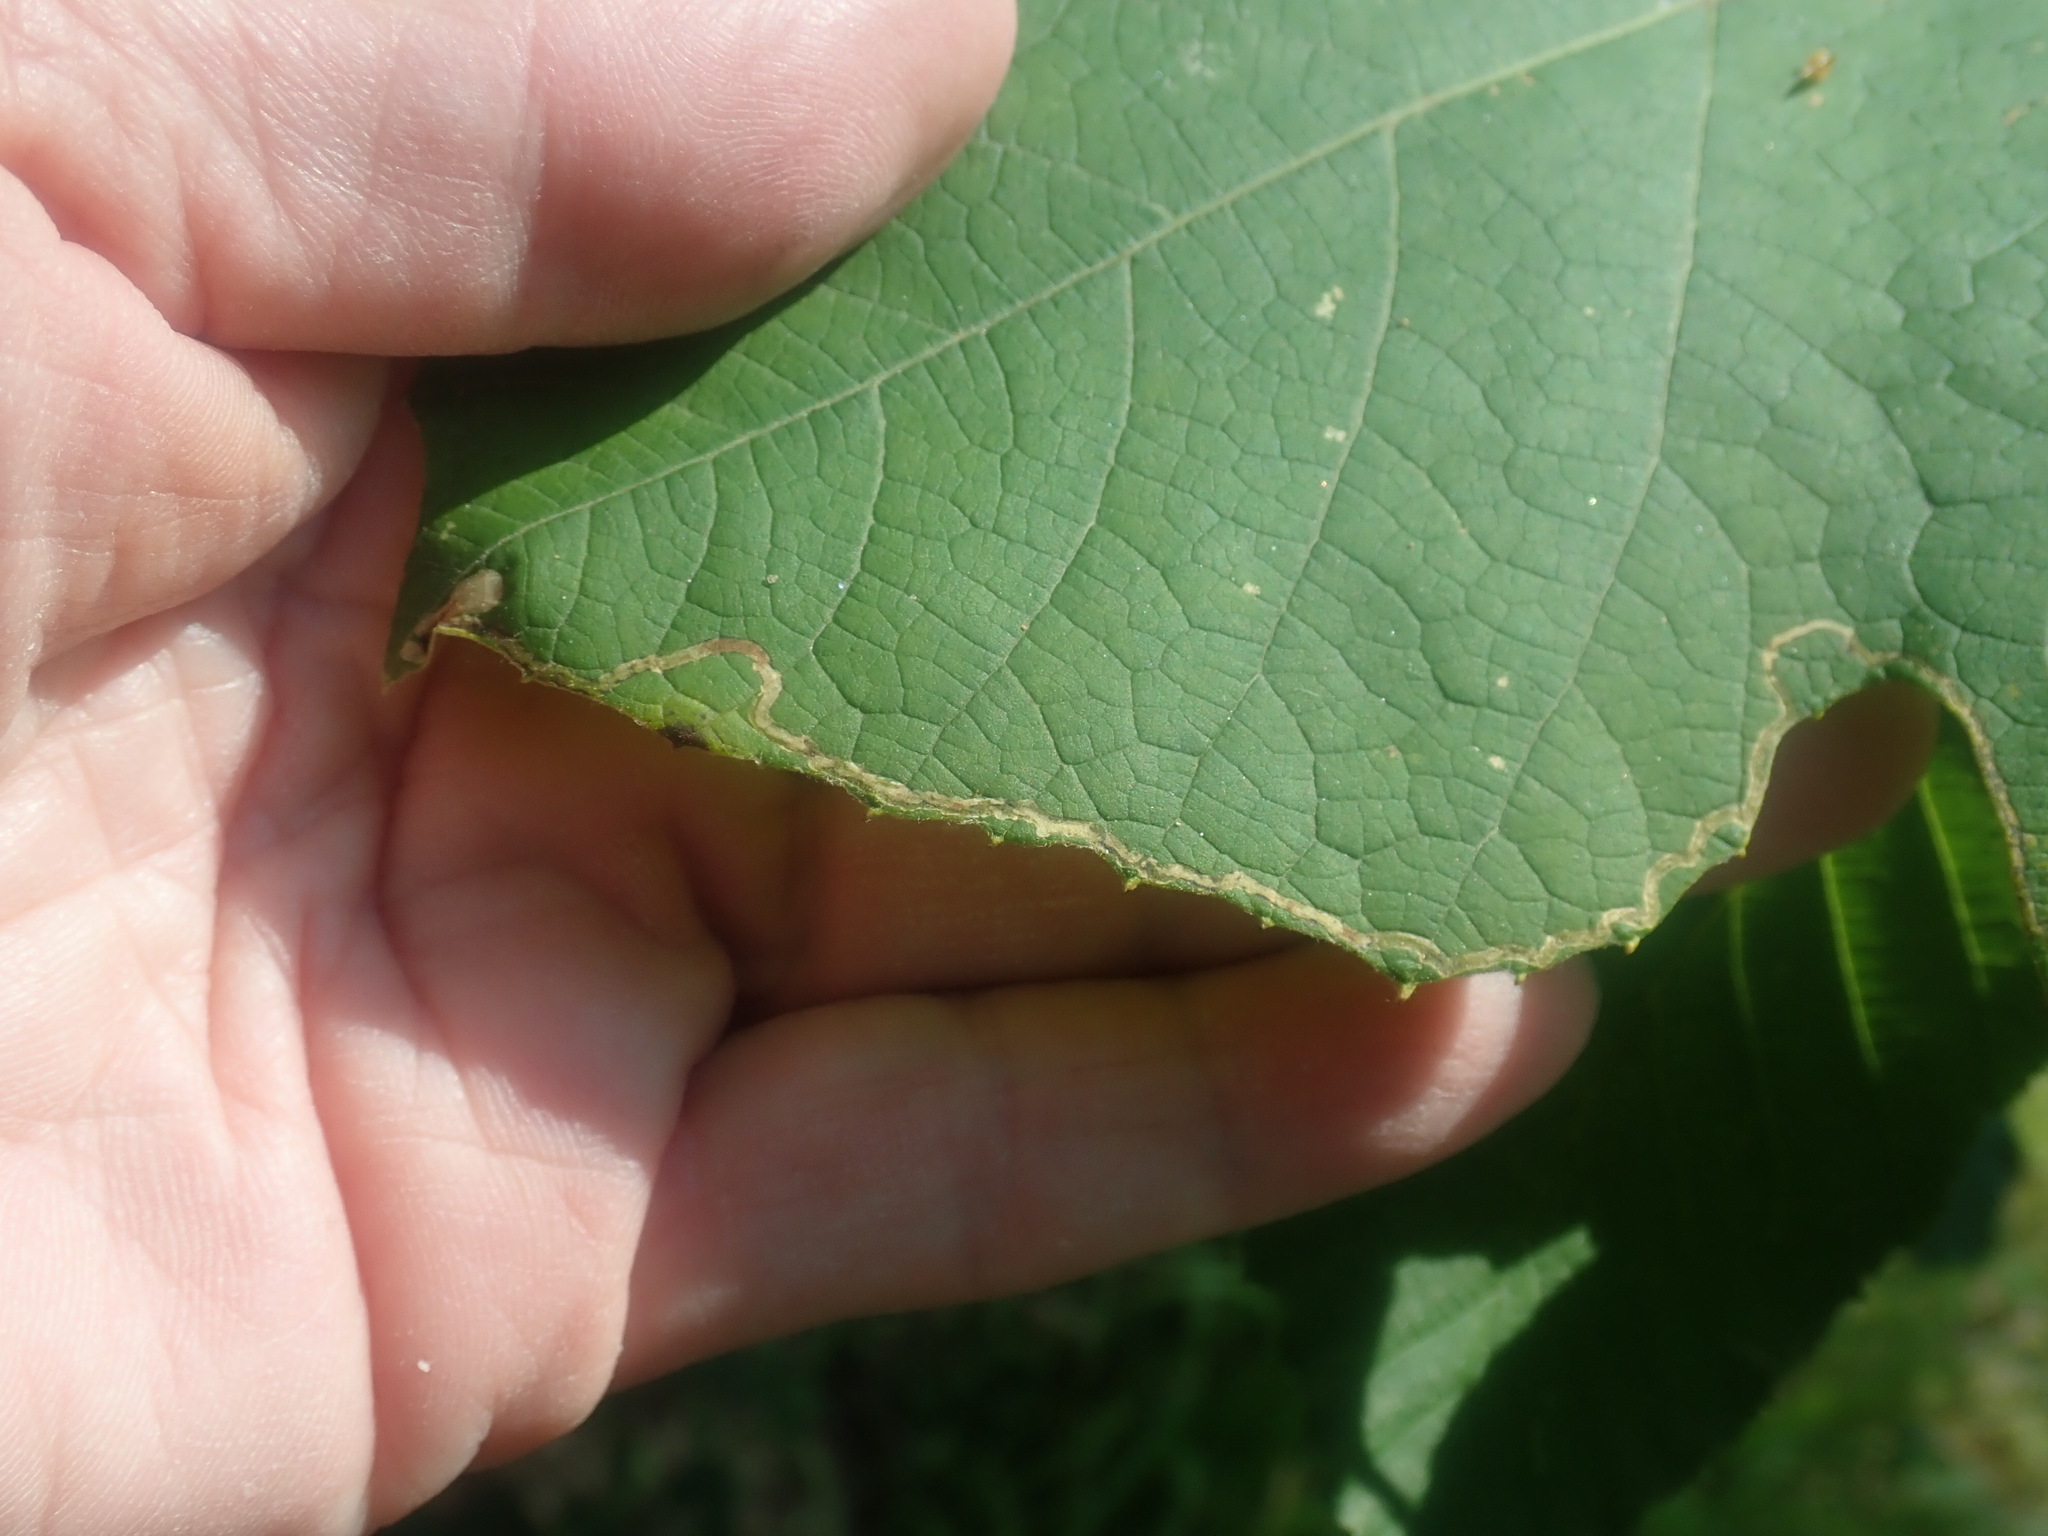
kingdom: Animalia
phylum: Arthropoda
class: Insecta
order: Lepidoptera
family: Gracillariidae
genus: Phyllocnistis
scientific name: Phyllocnistis vitifoliella
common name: Grape leaf-miner moth
